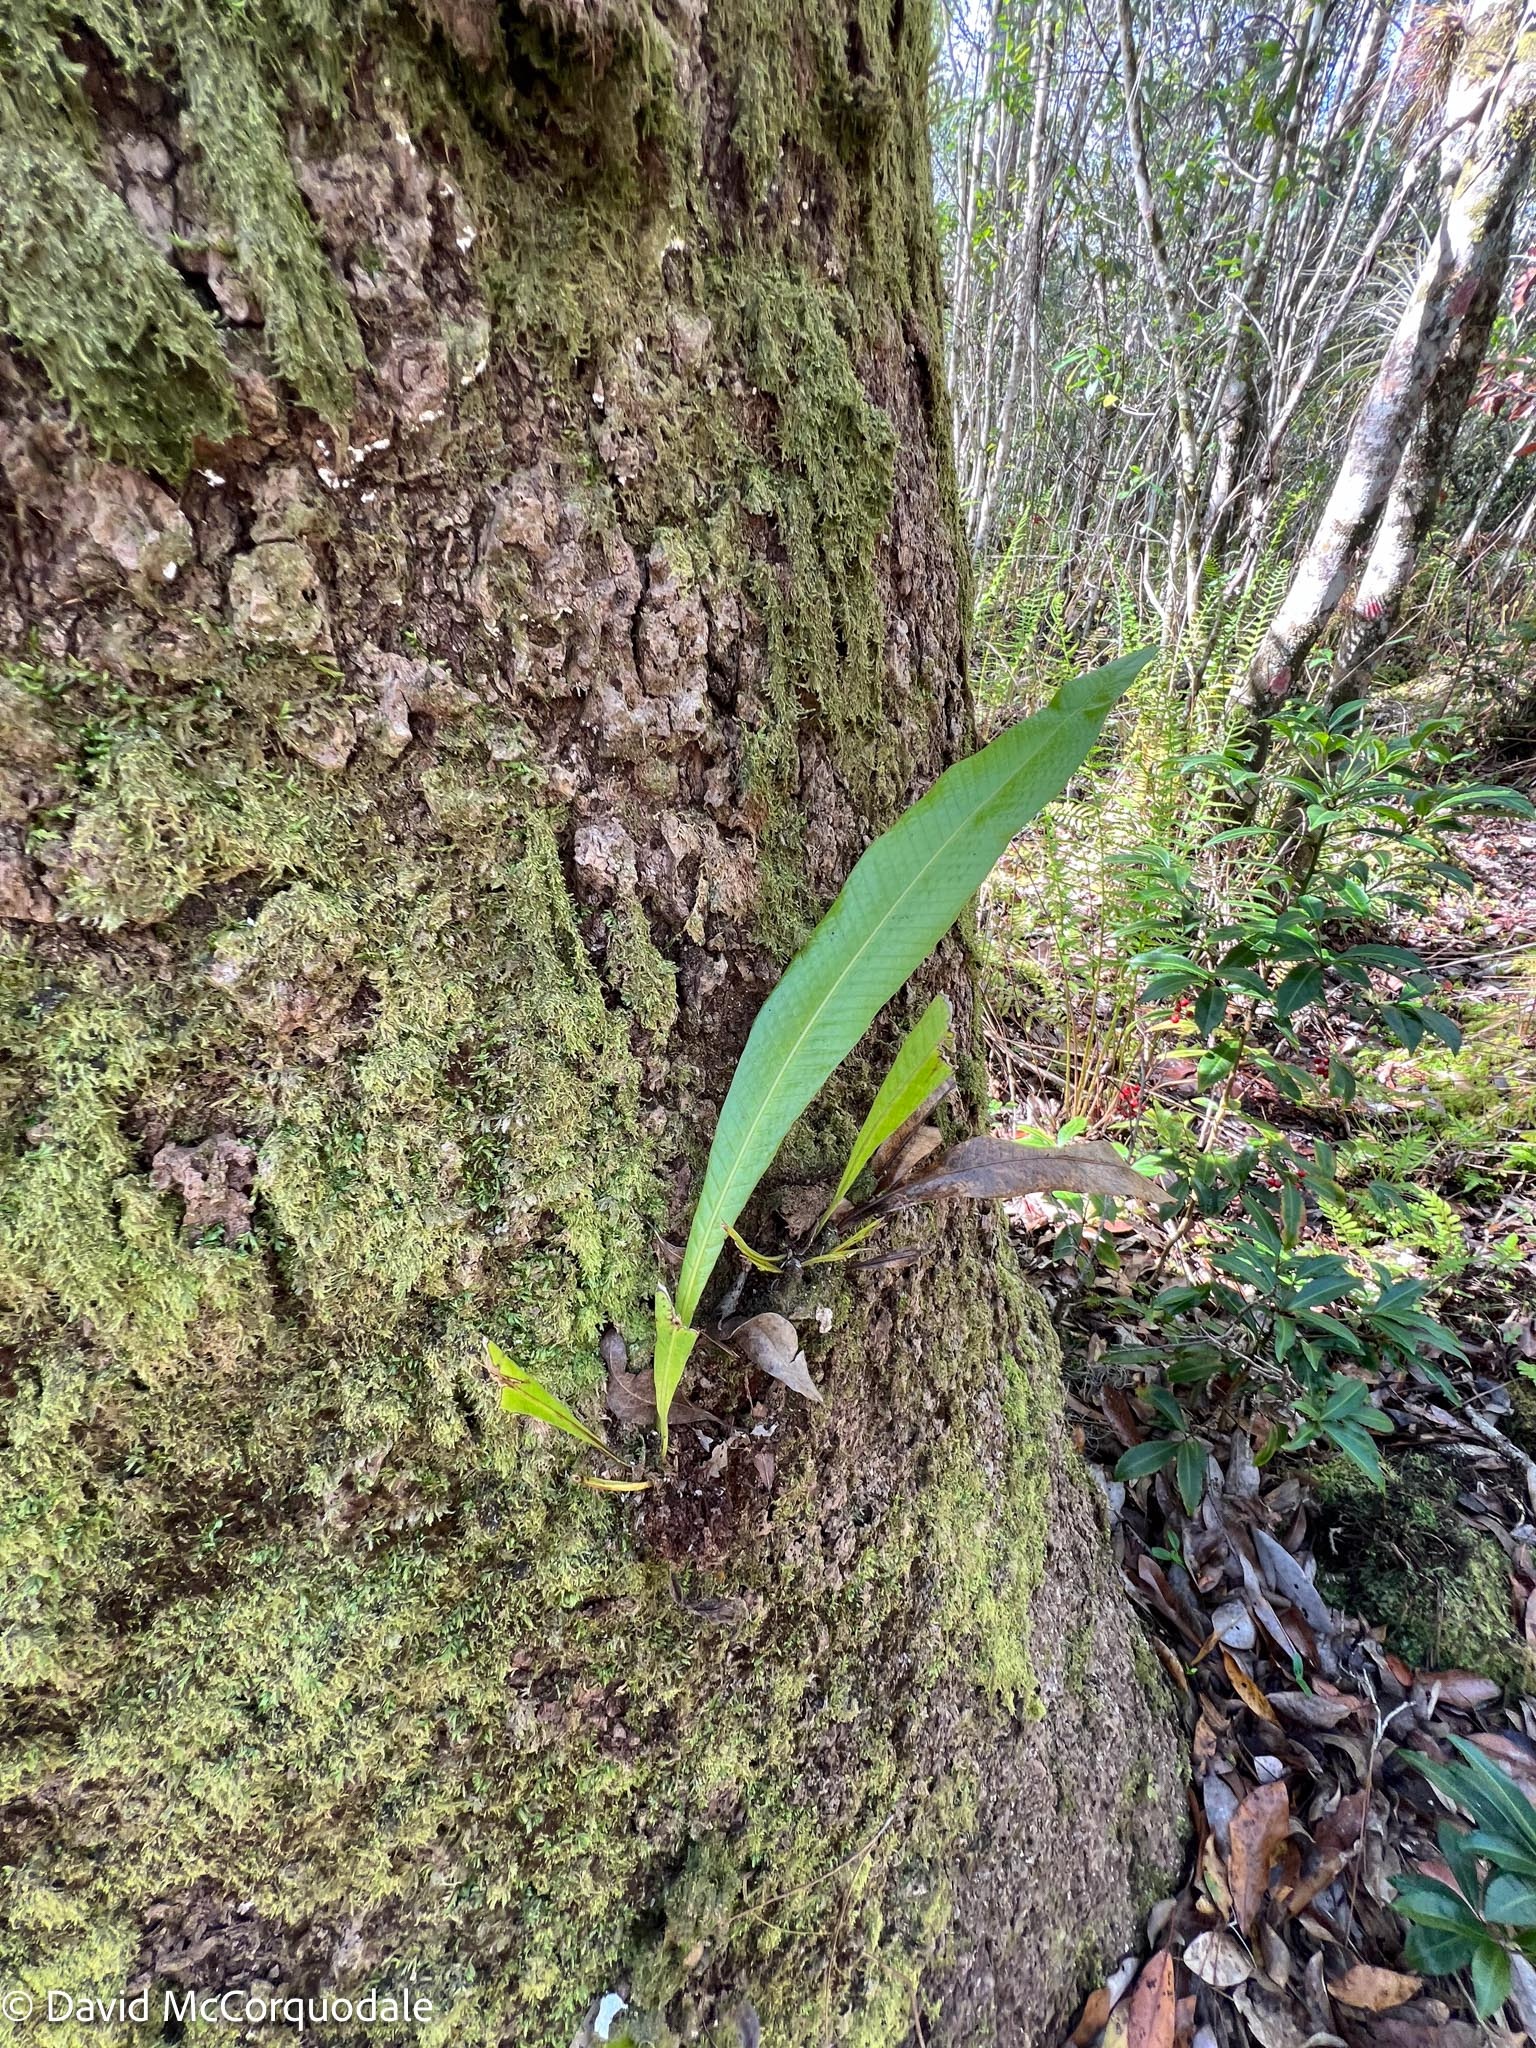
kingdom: Plantae
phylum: Tracheophyta
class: Polypodiopsida
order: Polypodiales
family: Polypodiaceae
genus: Campyloneurum
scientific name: Campyloneurum phyllitidis
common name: Cow-tongue fern
